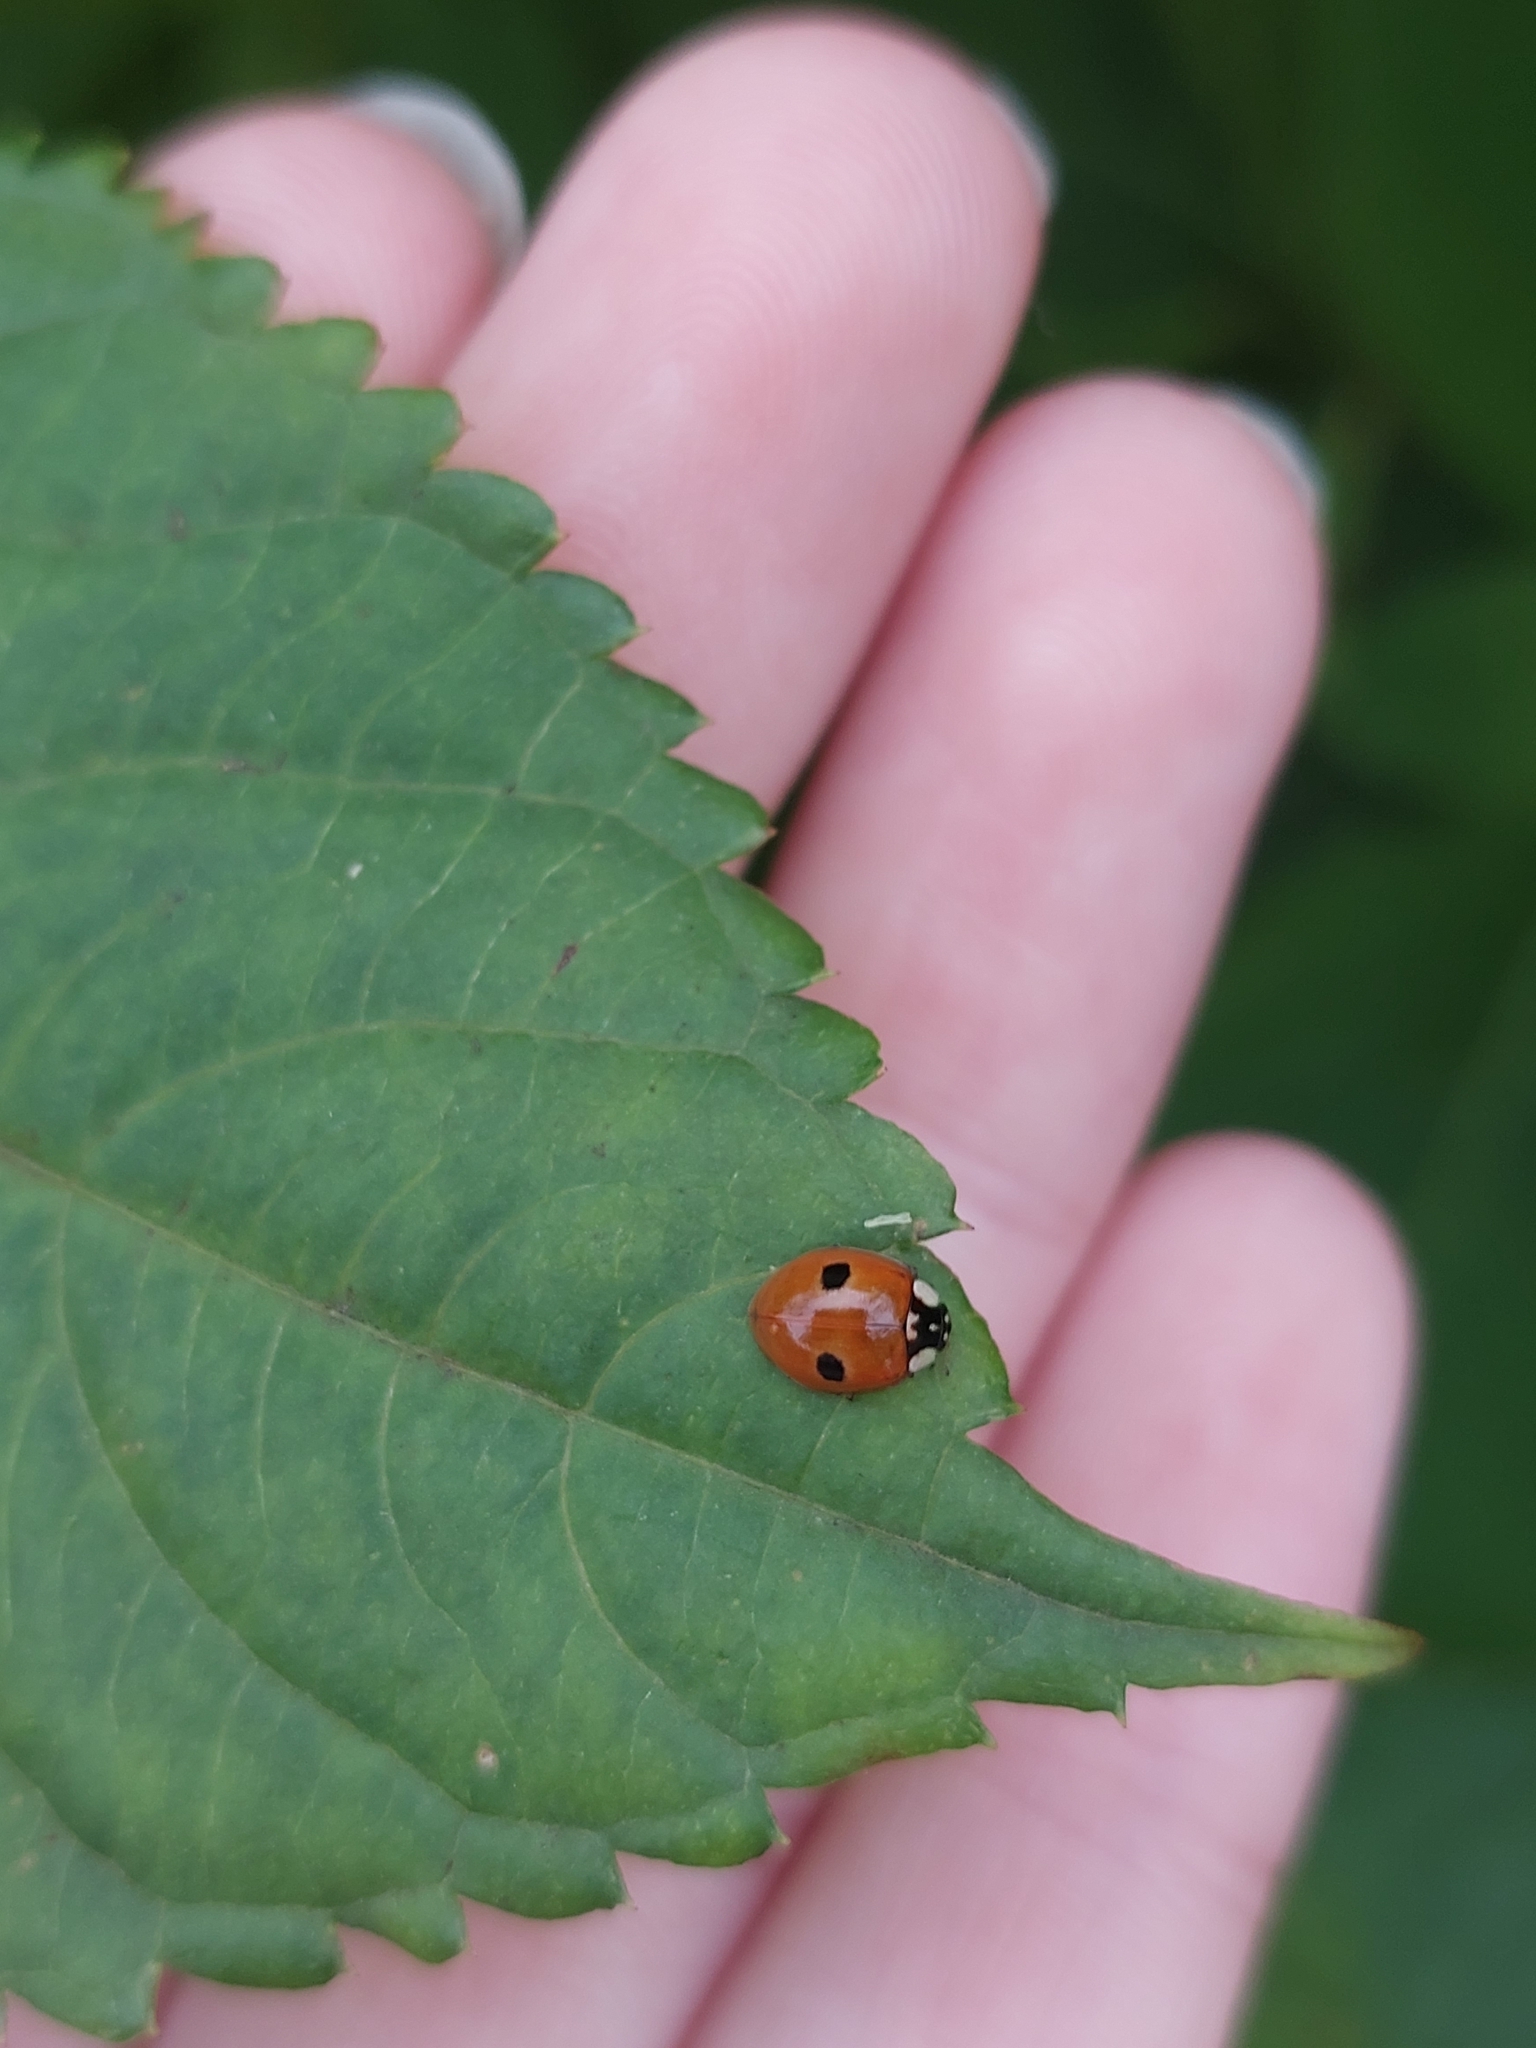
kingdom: Animalia
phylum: Arthropoda
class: Insecta
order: Coleoptera
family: Coccinellidae
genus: Adalia
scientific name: Adalia bipunctata
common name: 2-spot ladybird
